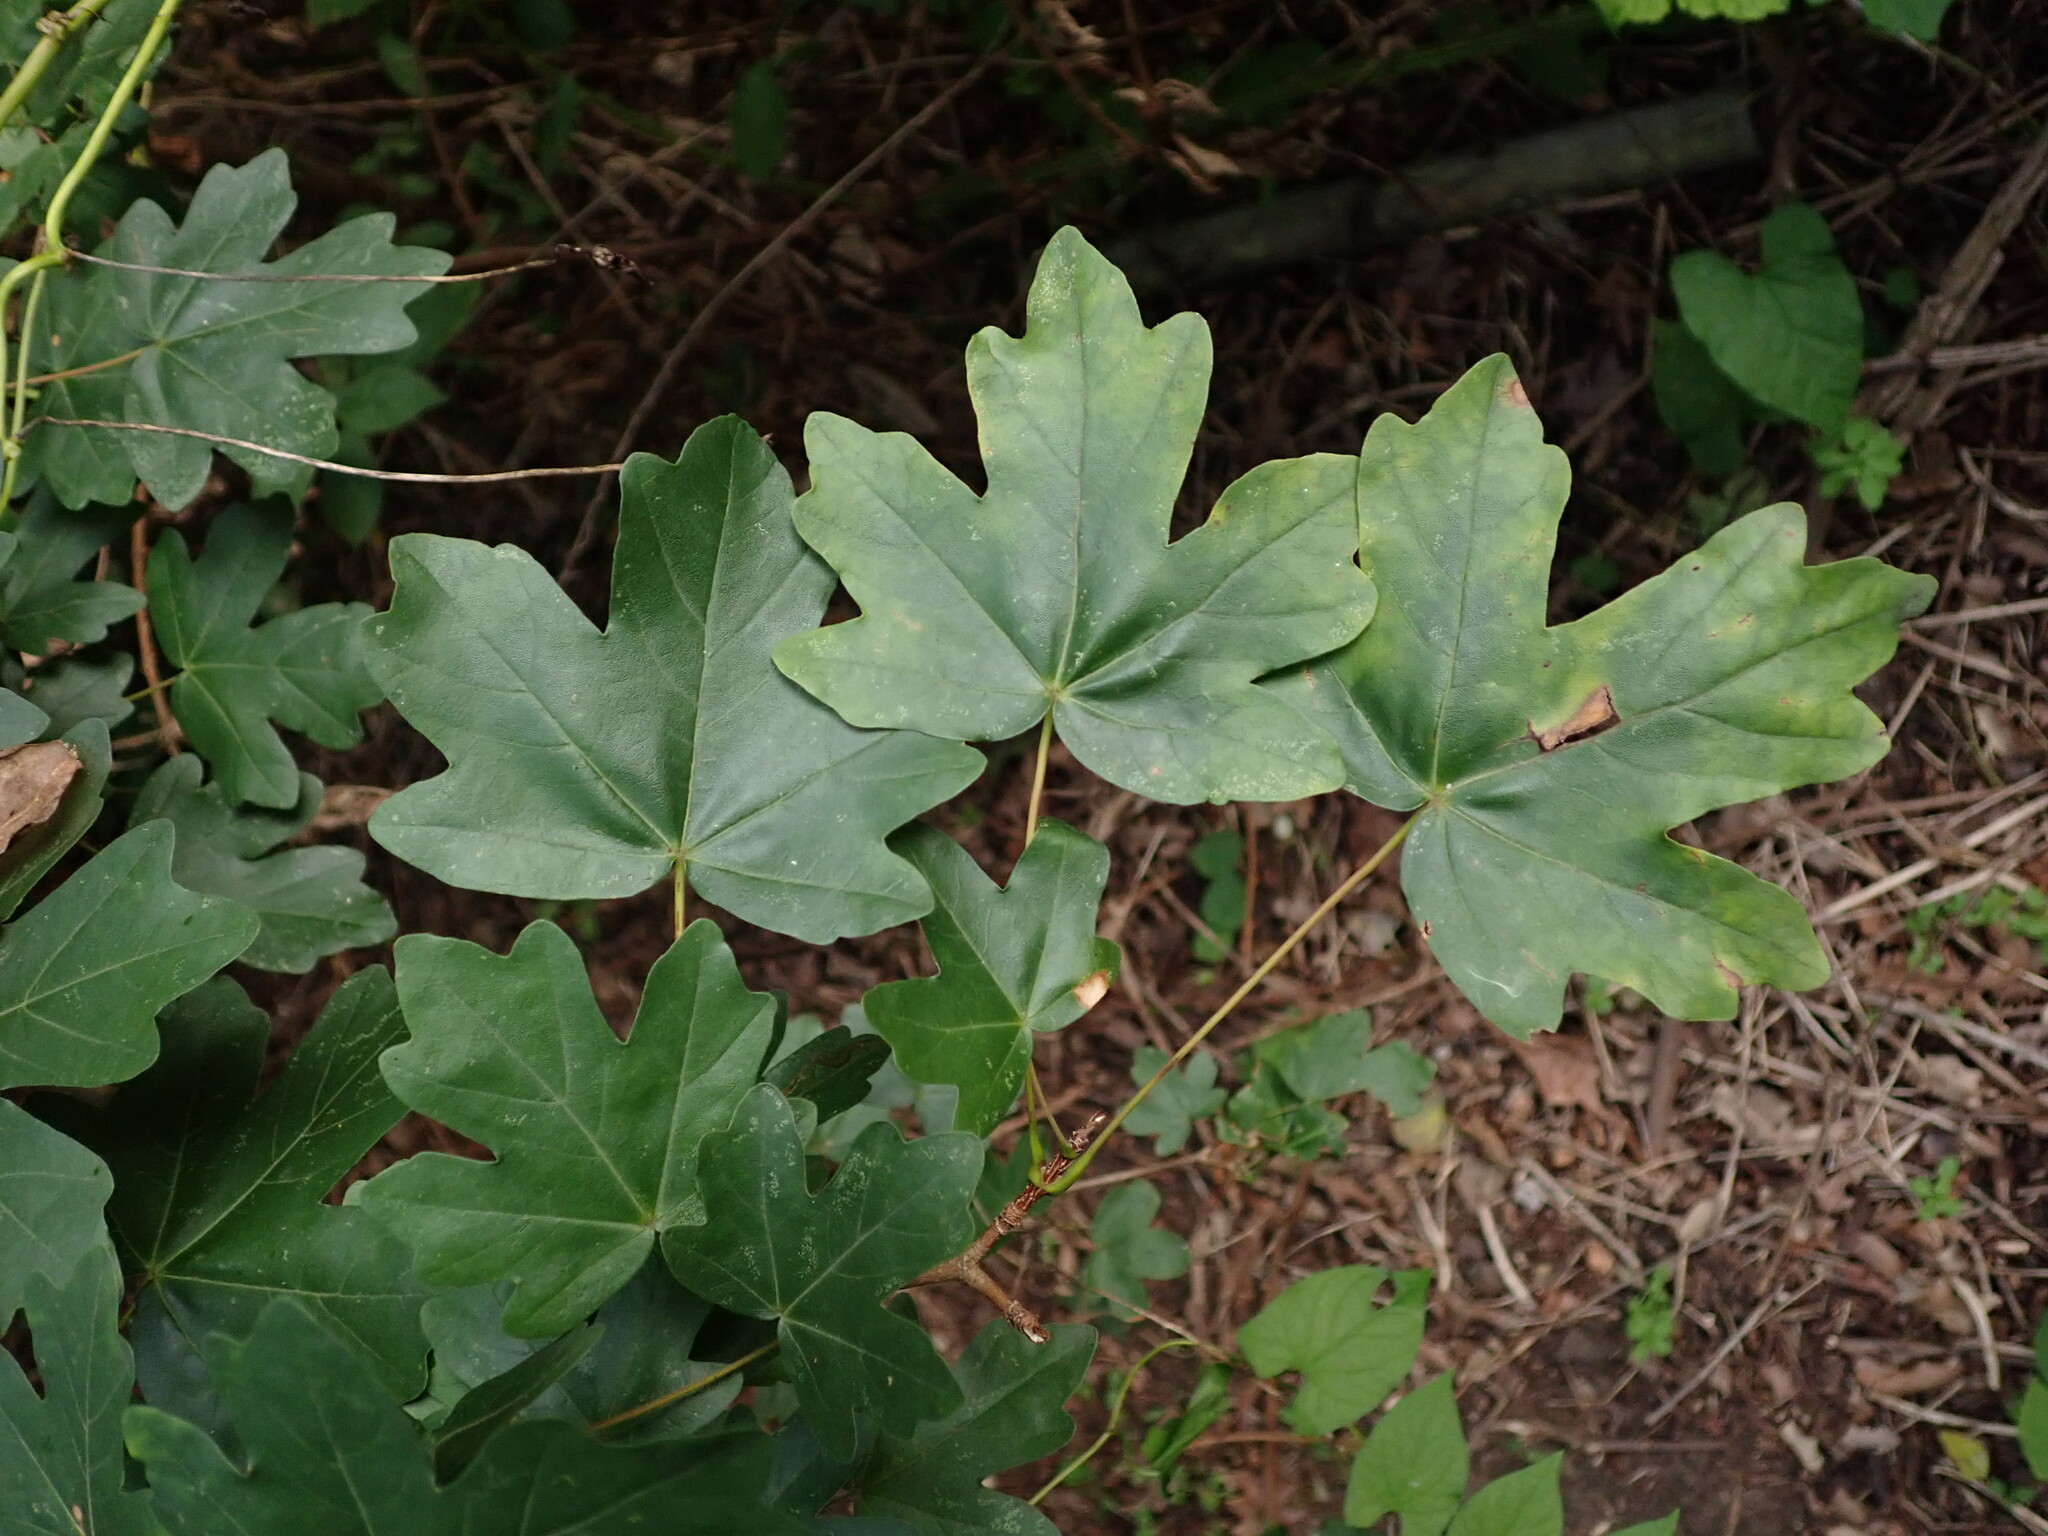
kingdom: Plantae
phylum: Tracheophyta
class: Magnoliopsida
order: Sapindales
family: Sapindaceae
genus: Acer
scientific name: Acer campestre
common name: Field maple
